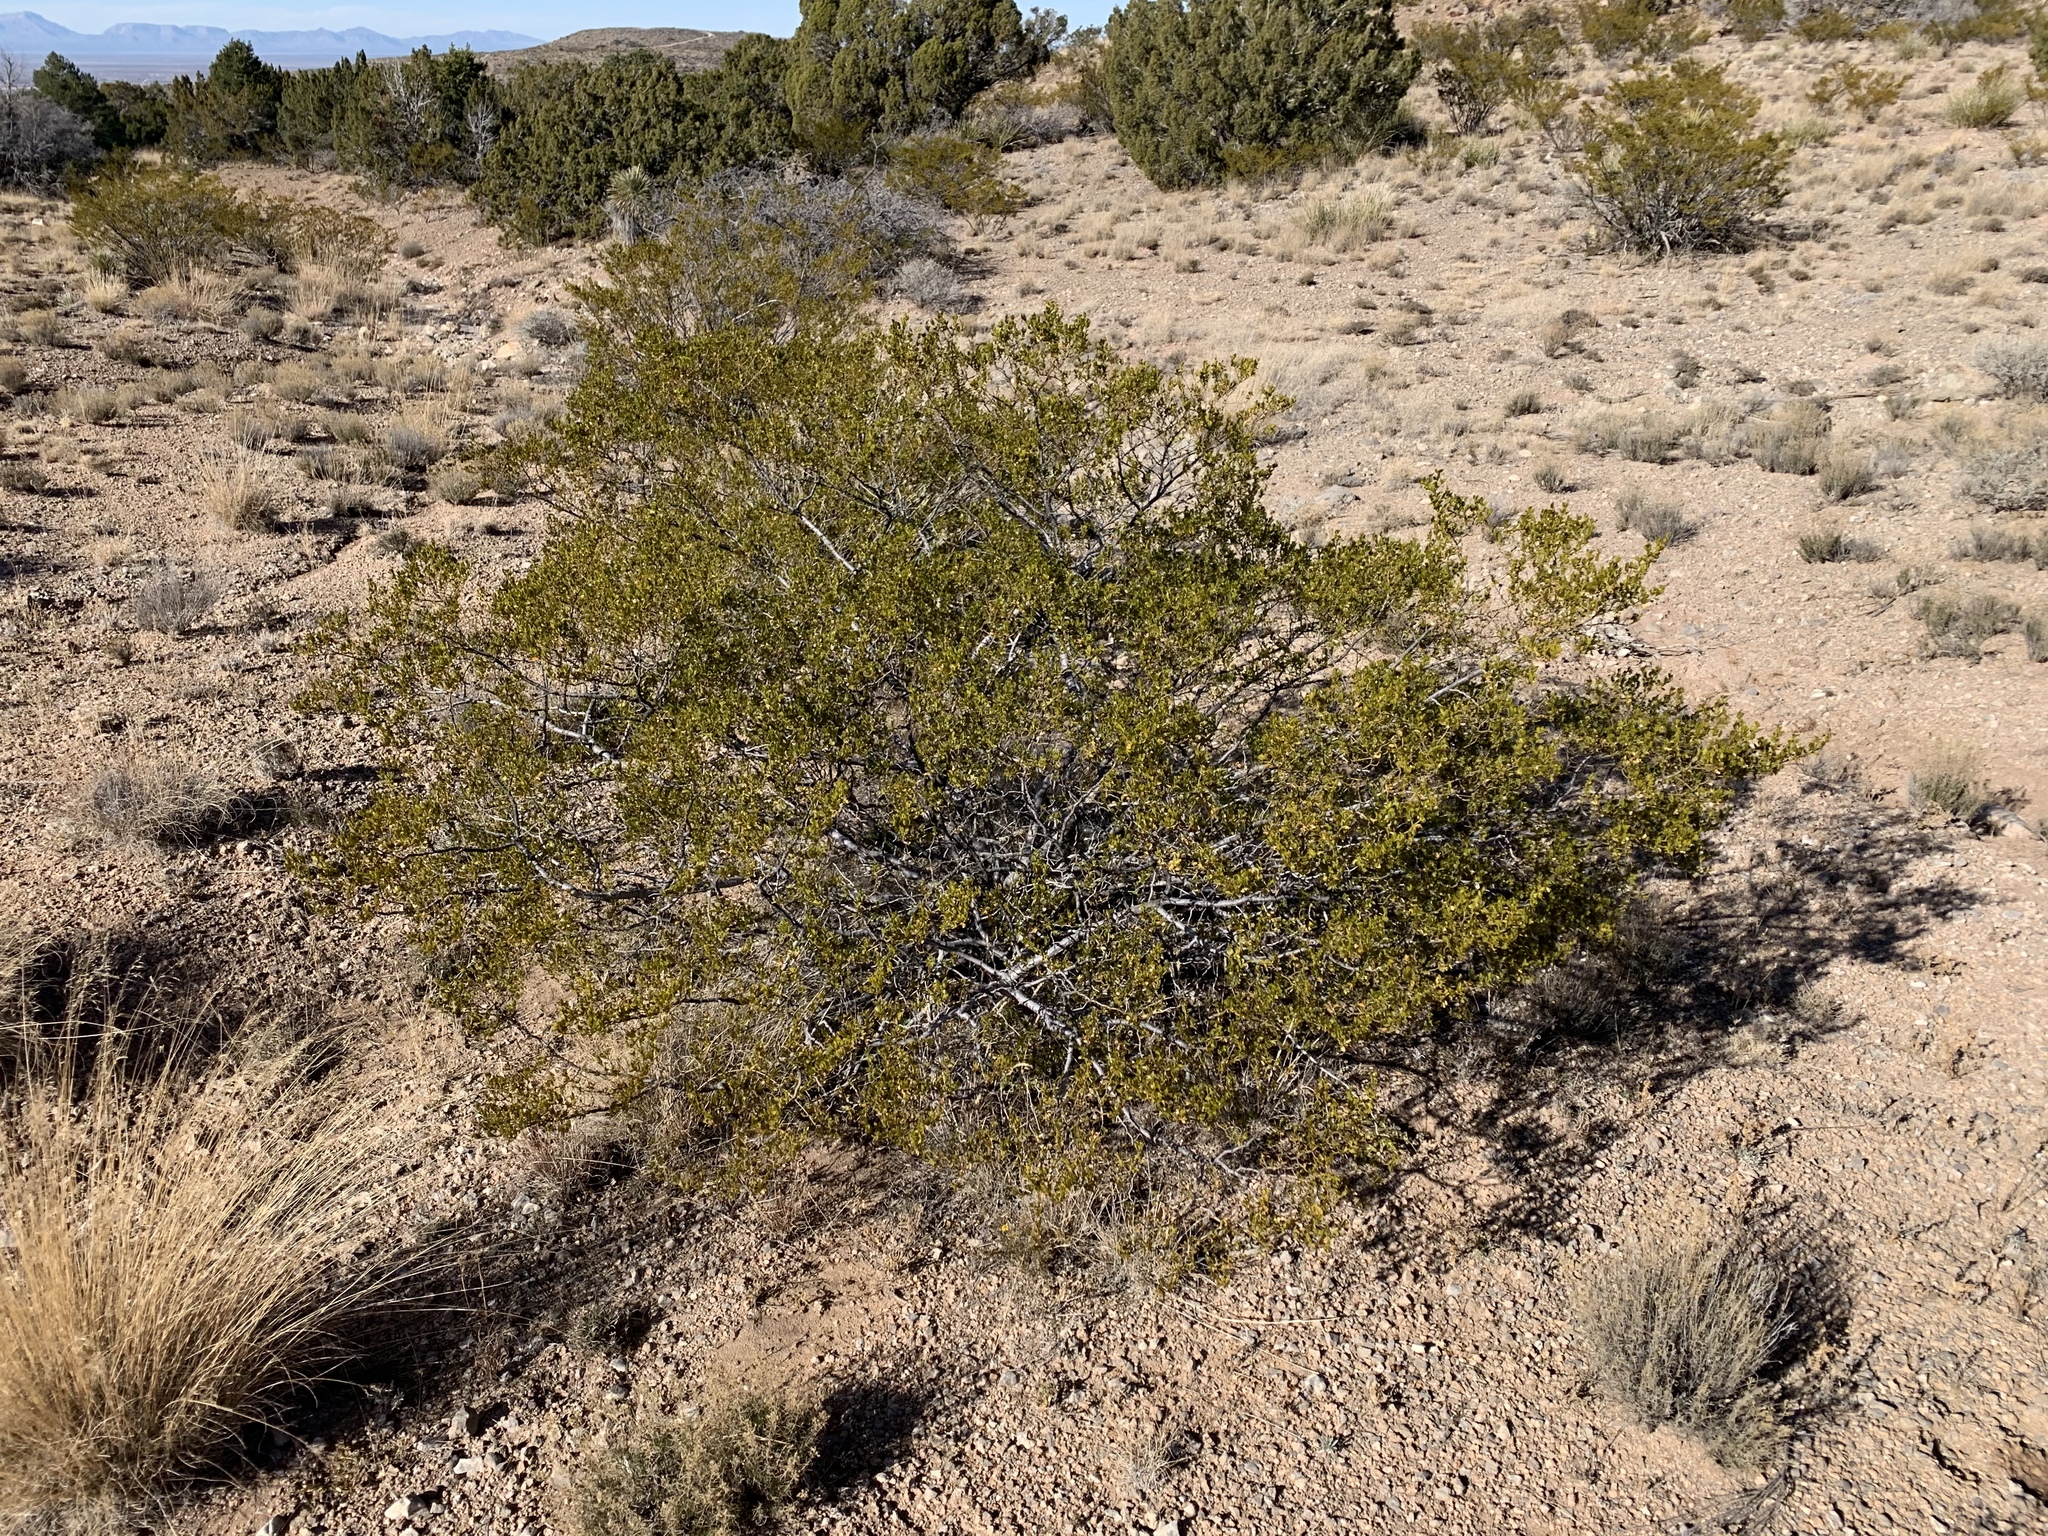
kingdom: Plantae
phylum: Tracheophyta
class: Magnoliopsida
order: Zygophyllales
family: Zygophyllaceae
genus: Larrea
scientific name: Larrea tridentata
